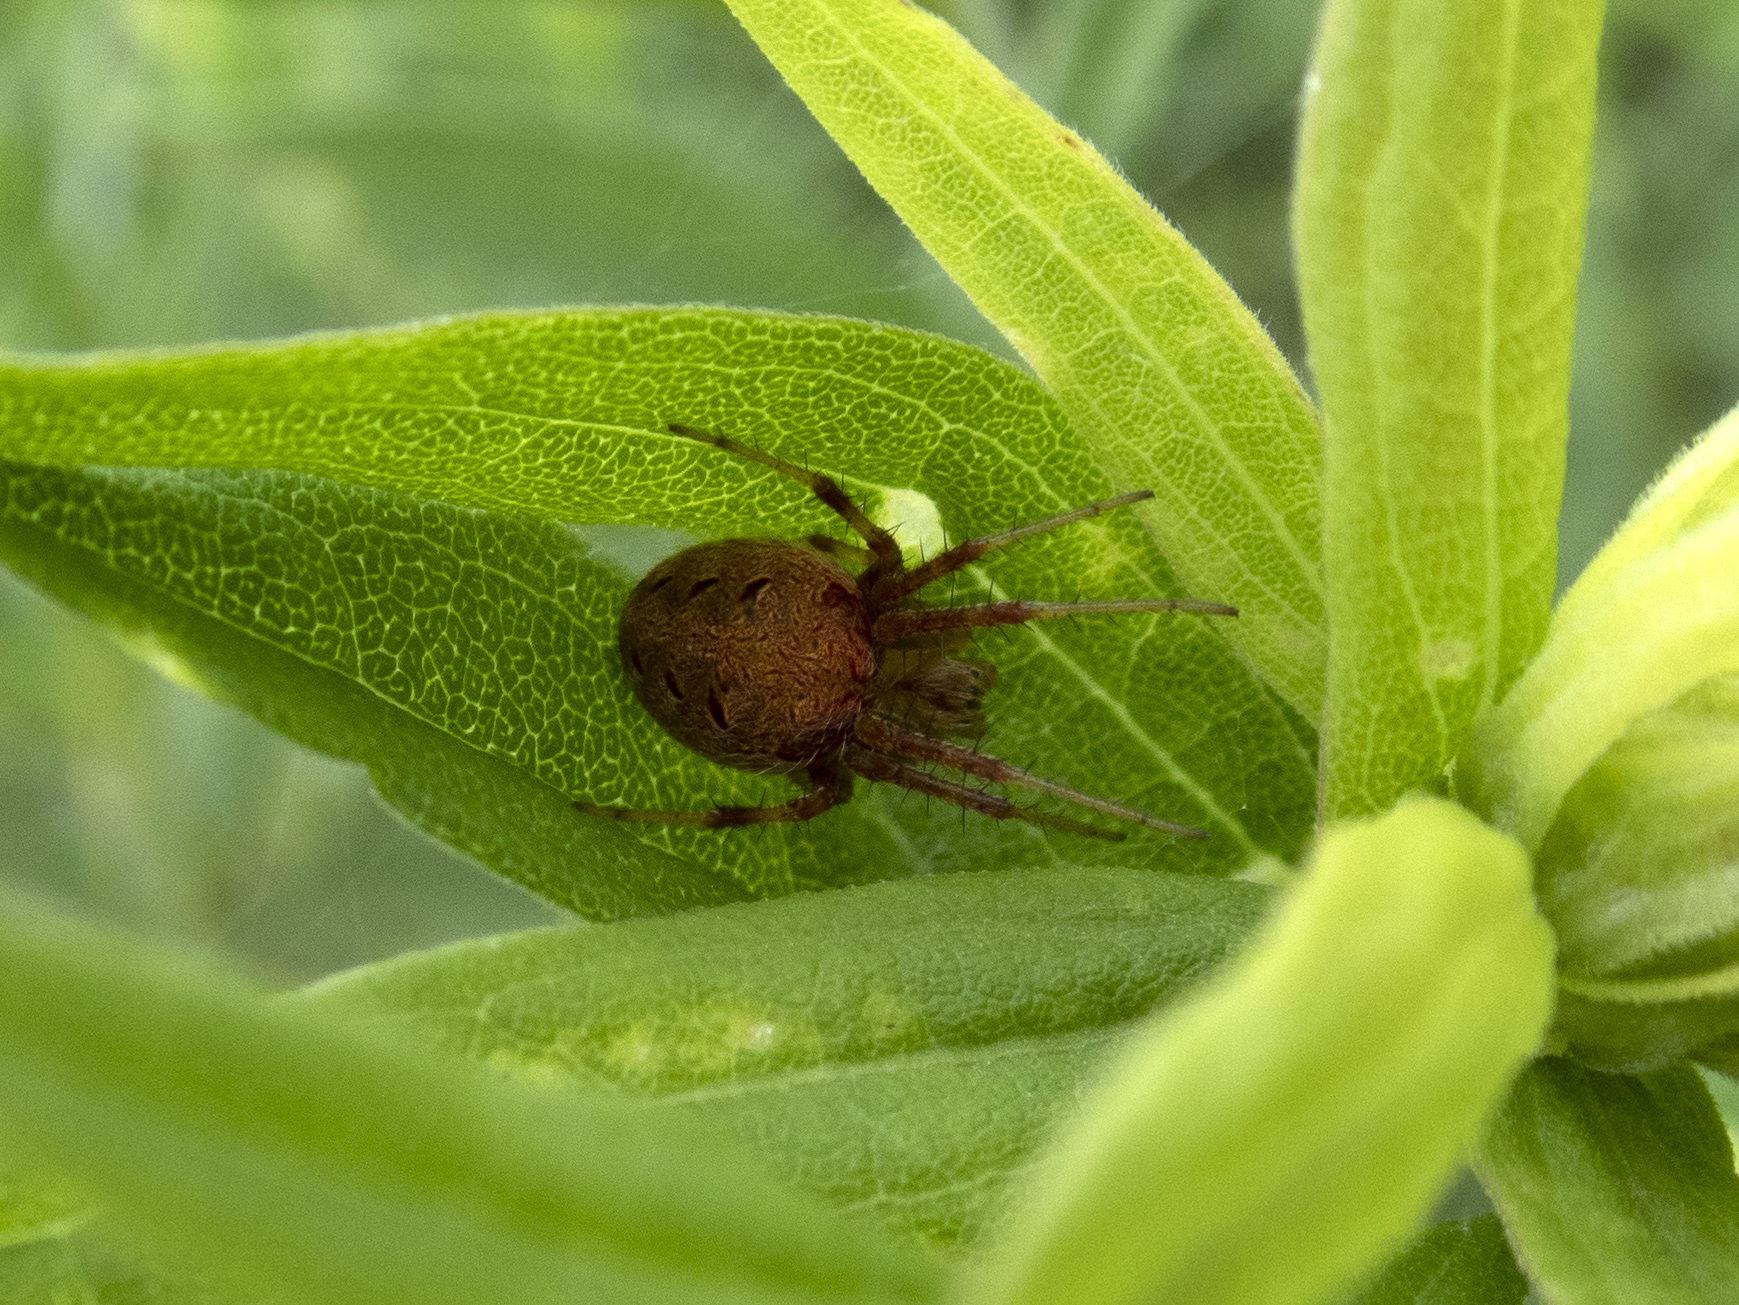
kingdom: Animalia
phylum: Arthropoda
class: Arachnida
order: Araneae
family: Araneidae
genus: Neoscona
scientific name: Neoscona arabesca
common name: Orb weavers
